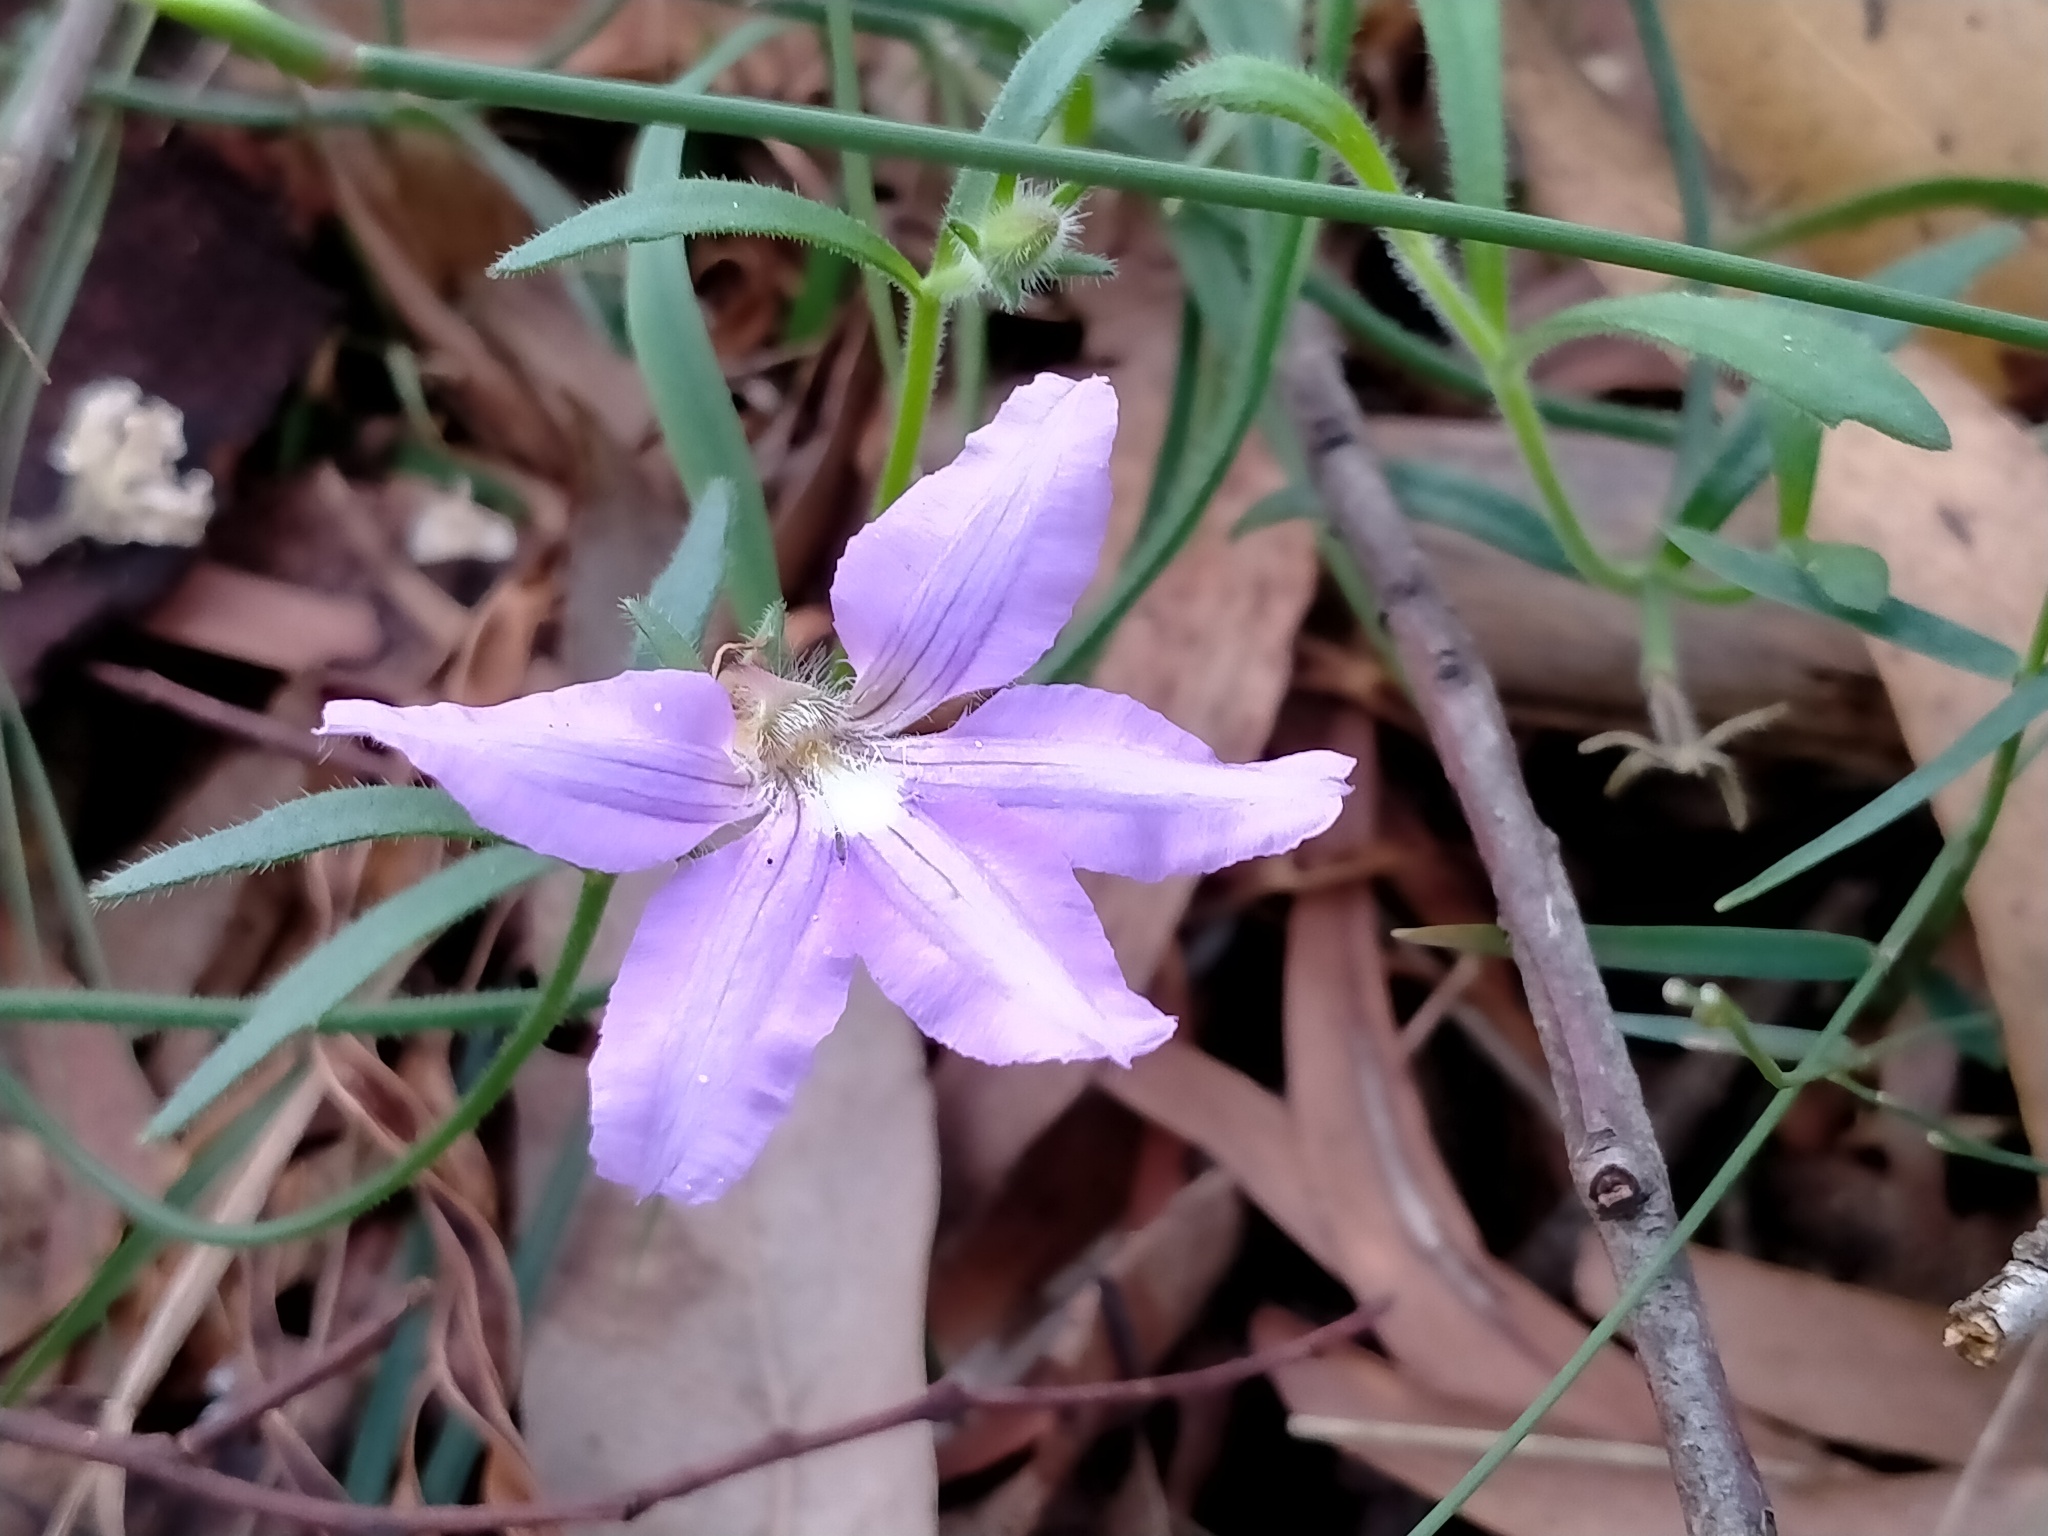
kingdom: Plantae
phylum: Tracheophyta
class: Magnoliopsida
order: Asterales
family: Goodeniaceae
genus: Scaevola
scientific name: Scaevola ramosissima
